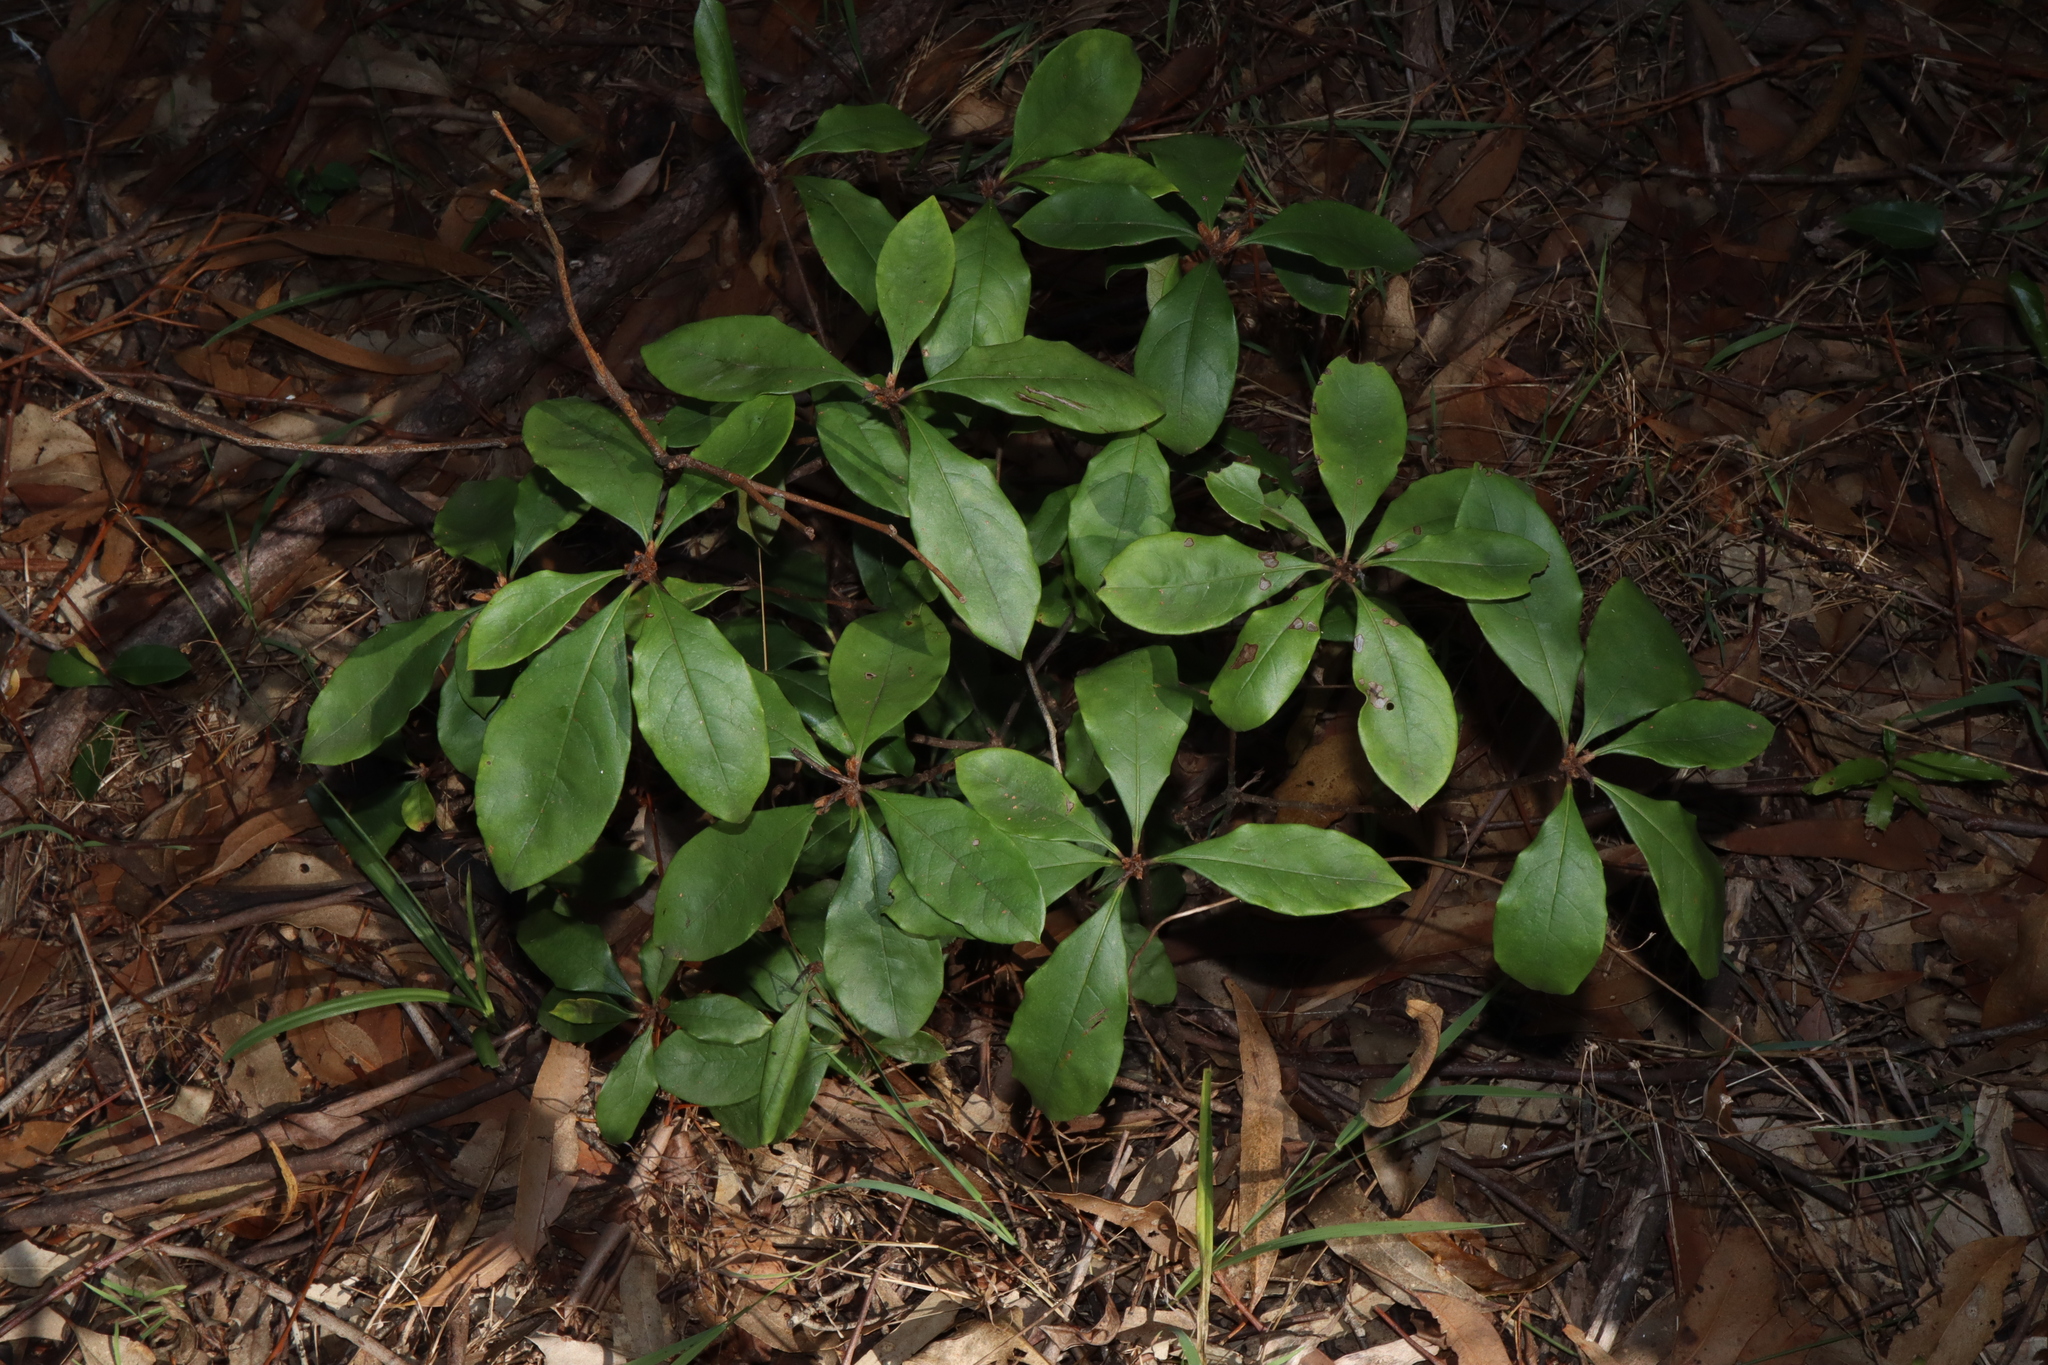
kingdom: Plantae
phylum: Tracheophyta
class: Magnoliopsida
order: Apiales
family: Pittosporaceae
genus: Pittosporum
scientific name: Pittosporum revolutum
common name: Brisbane-laurel
